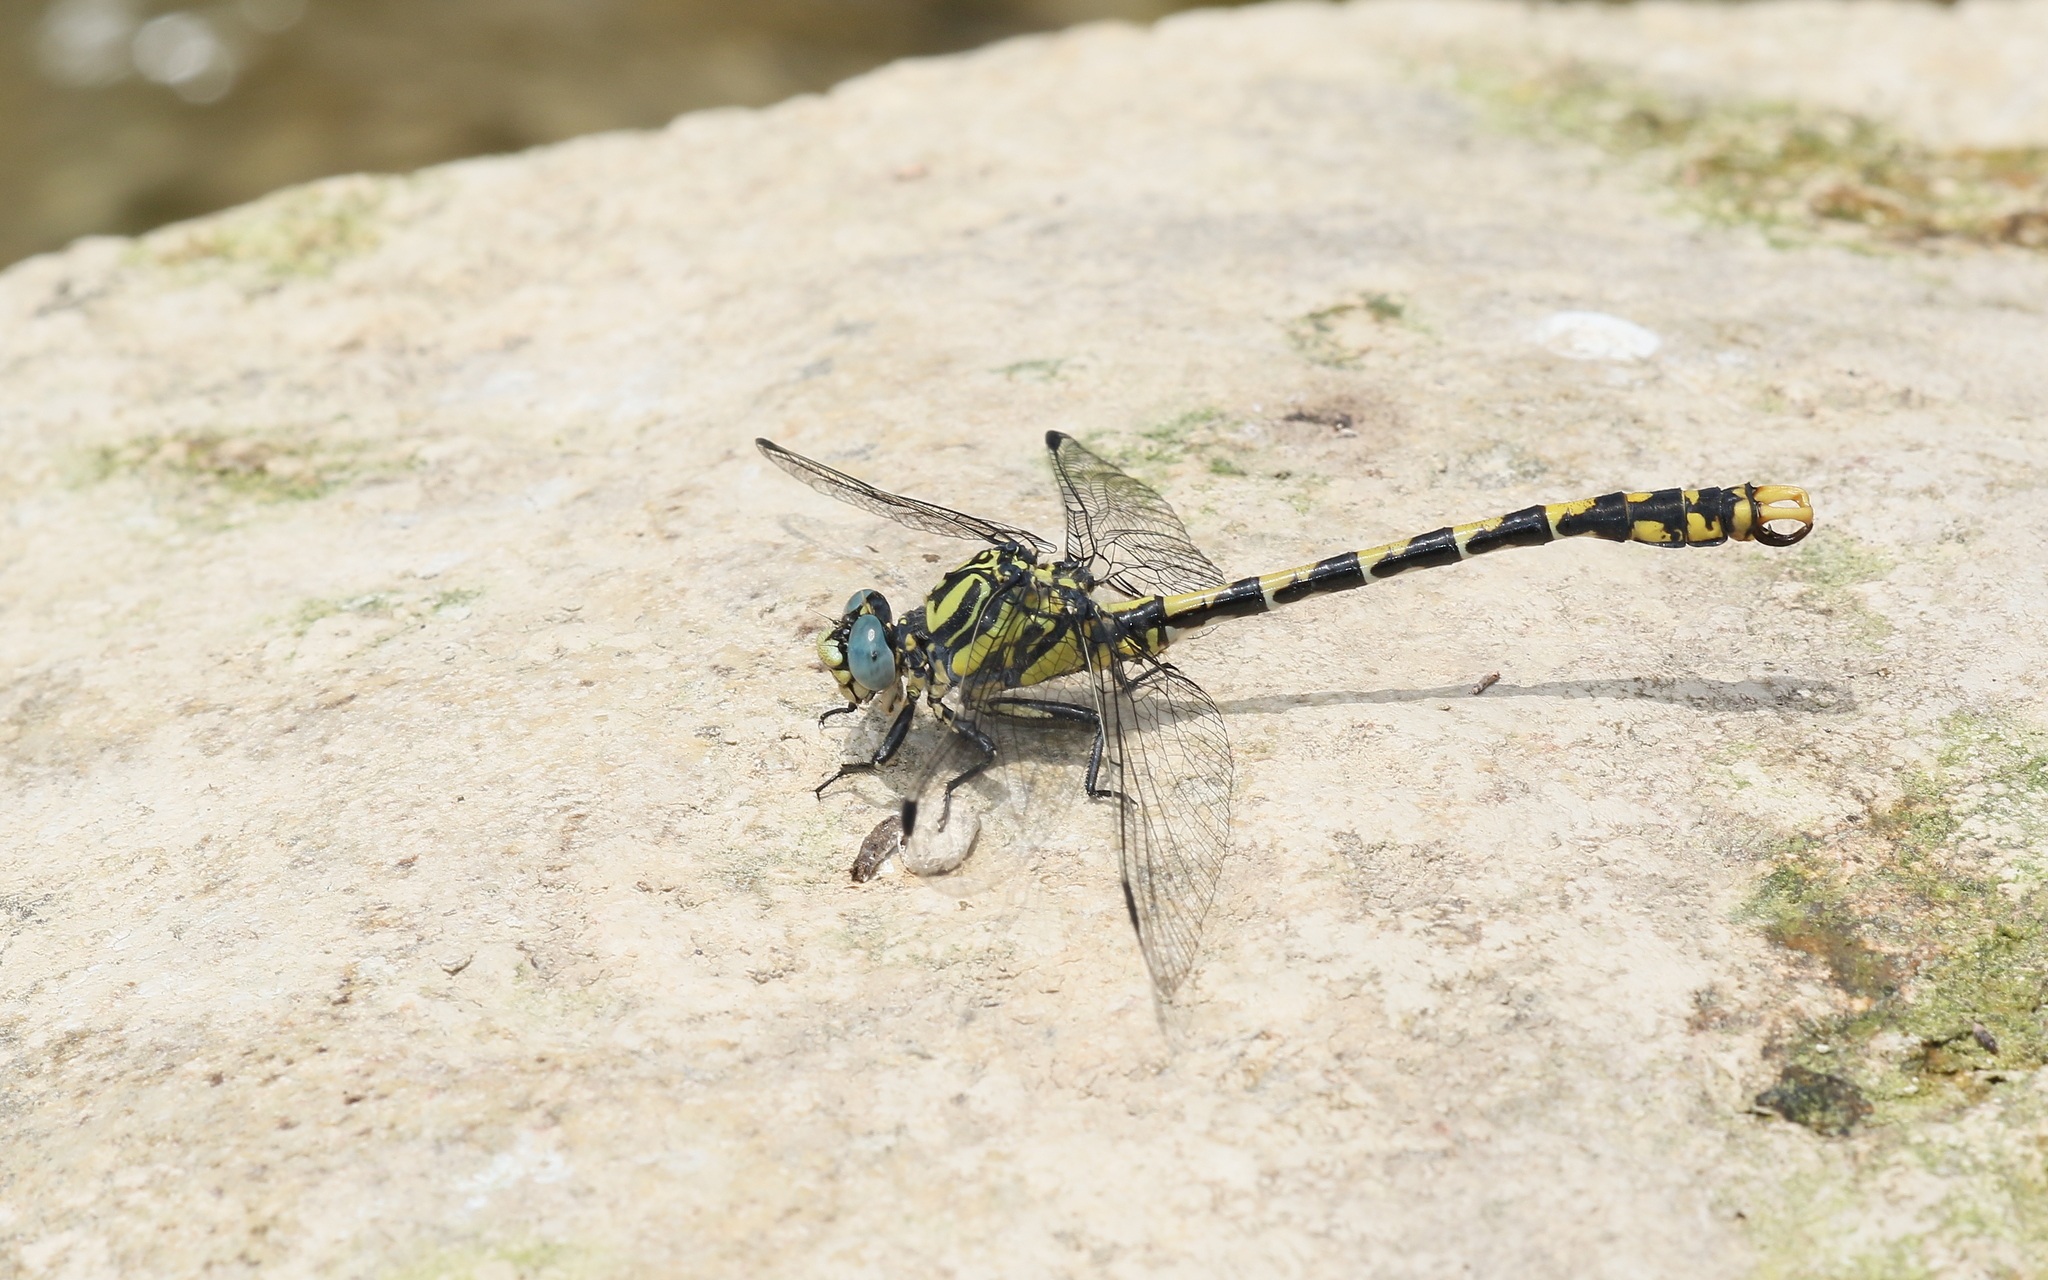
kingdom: Animalia
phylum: Arthropoda
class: Insecta
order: Odonata
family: Gomphidae
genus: Onychogomphus
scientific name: Onychogomphus uncatus
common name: Large pincertail
